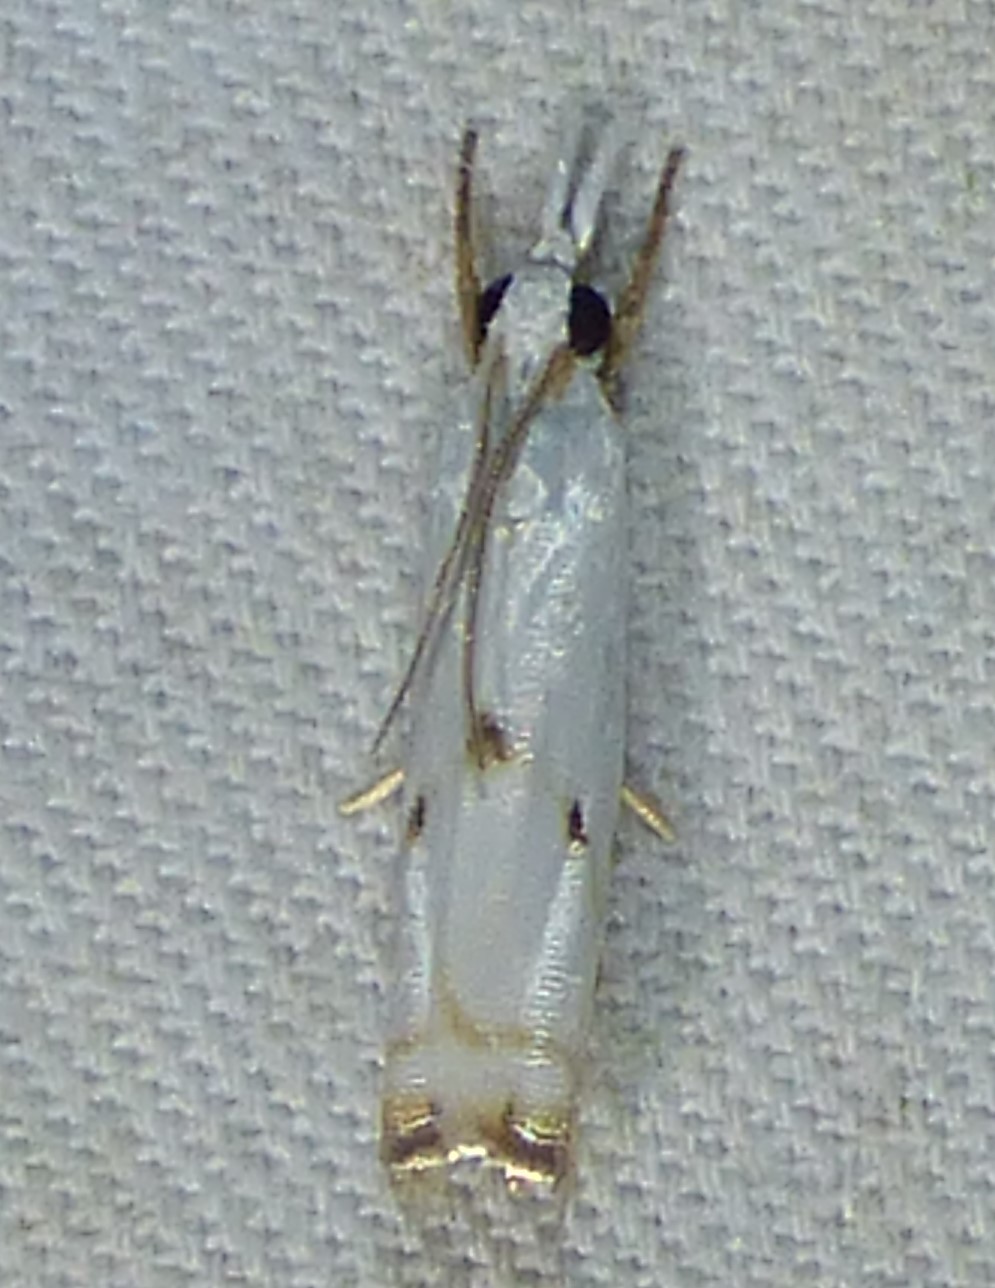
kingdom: Animalia
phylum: Arthropoda
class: Insecta
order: Lepidoptera
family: Crambidae
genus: Microcrambus
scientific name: Microcrambus biguttellus
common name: Gold-stripe grass-veneer moth
